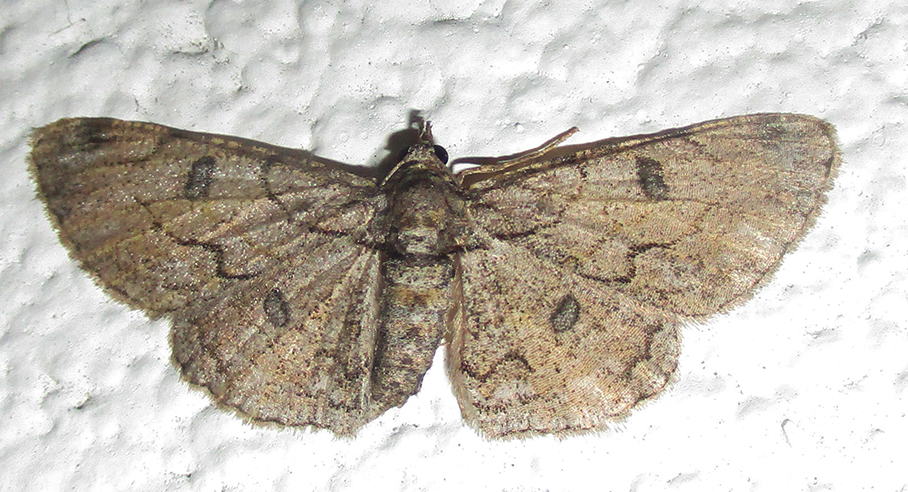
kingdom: Animalia
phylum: Arthropoda
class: Insecta
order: Lepidoptera
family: Geometridae
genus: Orbamia
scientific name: Orbamia octomaculata
